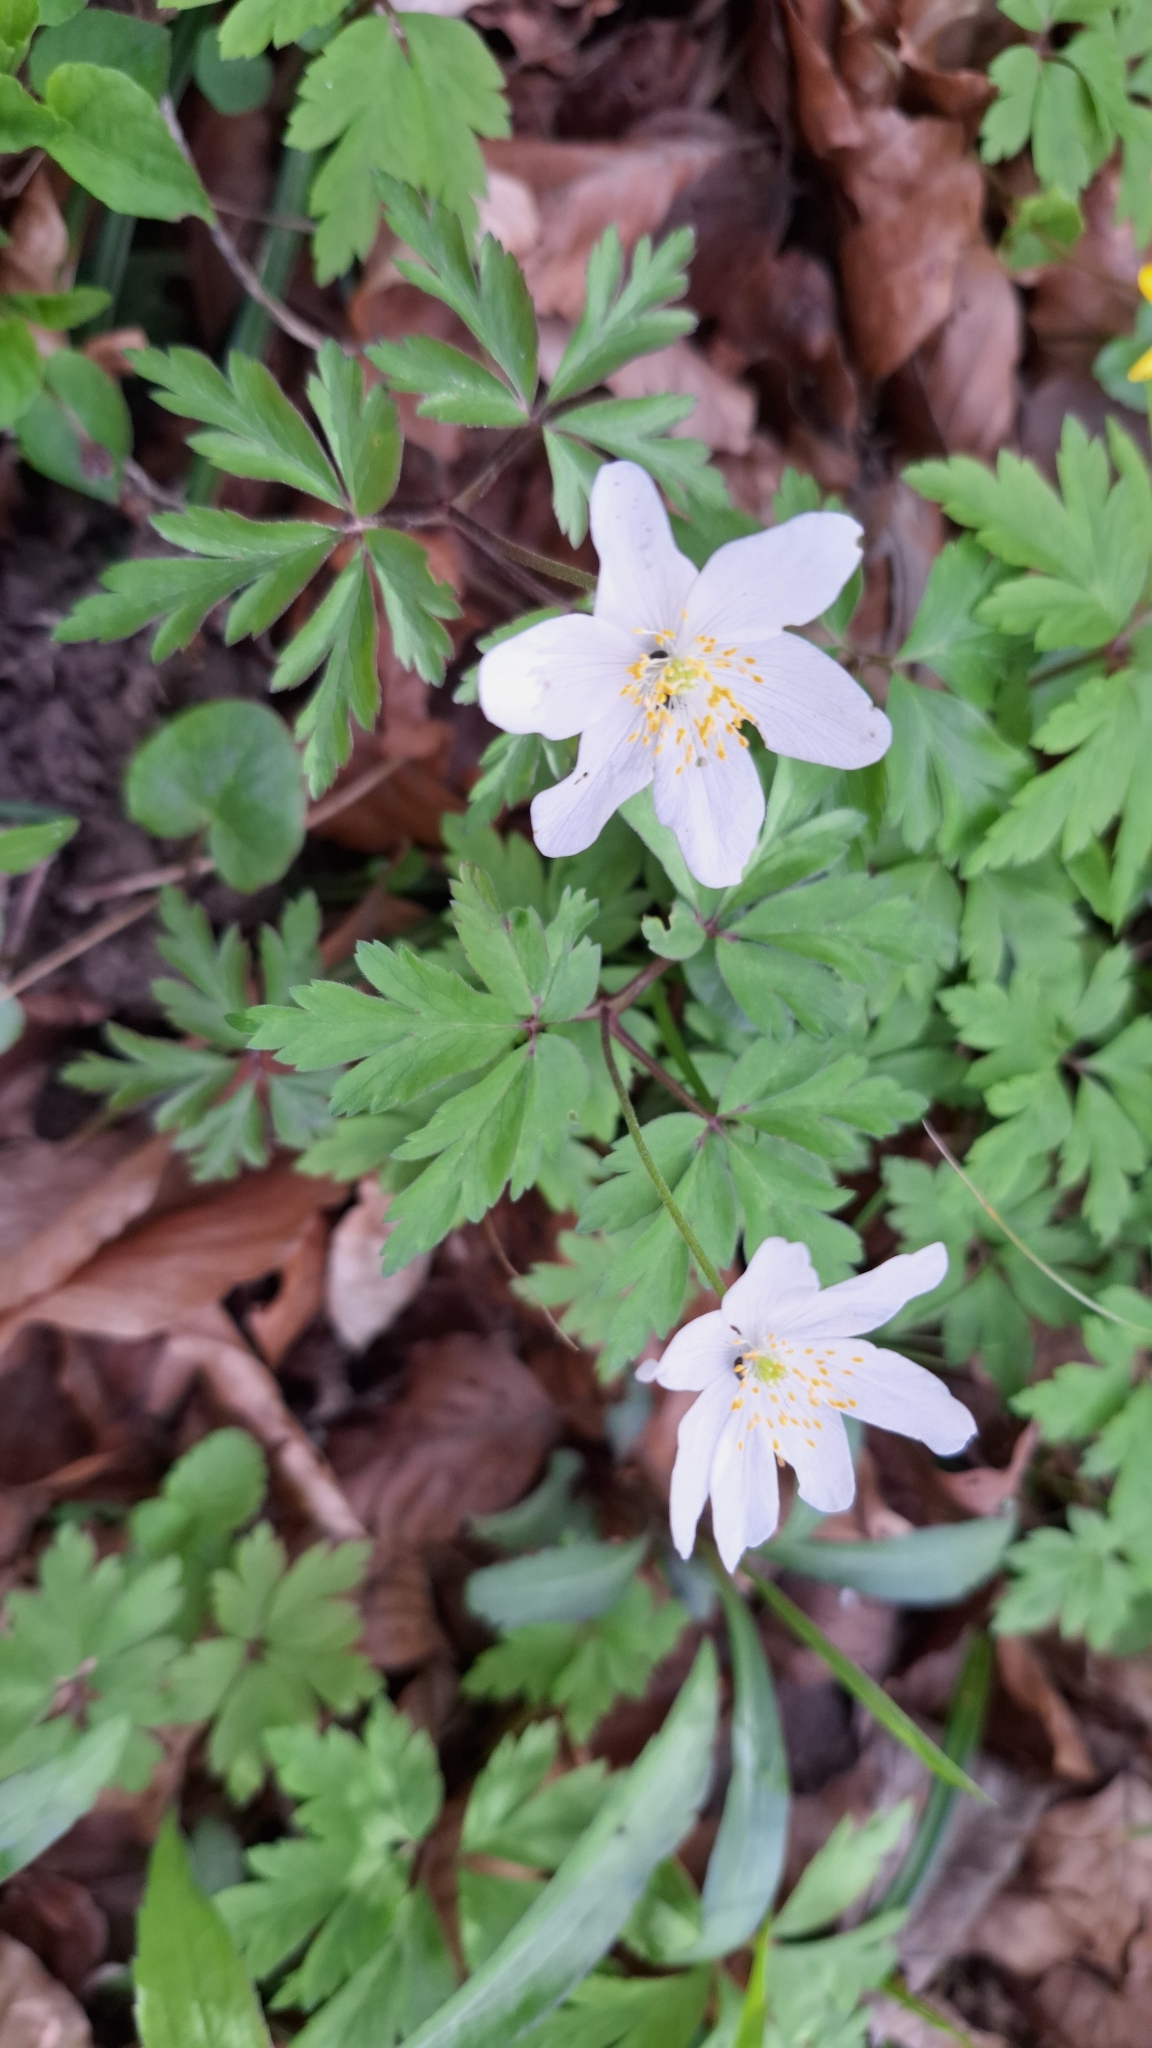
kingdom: Plantae
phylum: Tracheophyta
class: Magnoliopsida
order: Ranunculales
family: Ranunculaceae
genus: Anemone
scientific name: Anemone nemorosa
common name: Wood anemone
